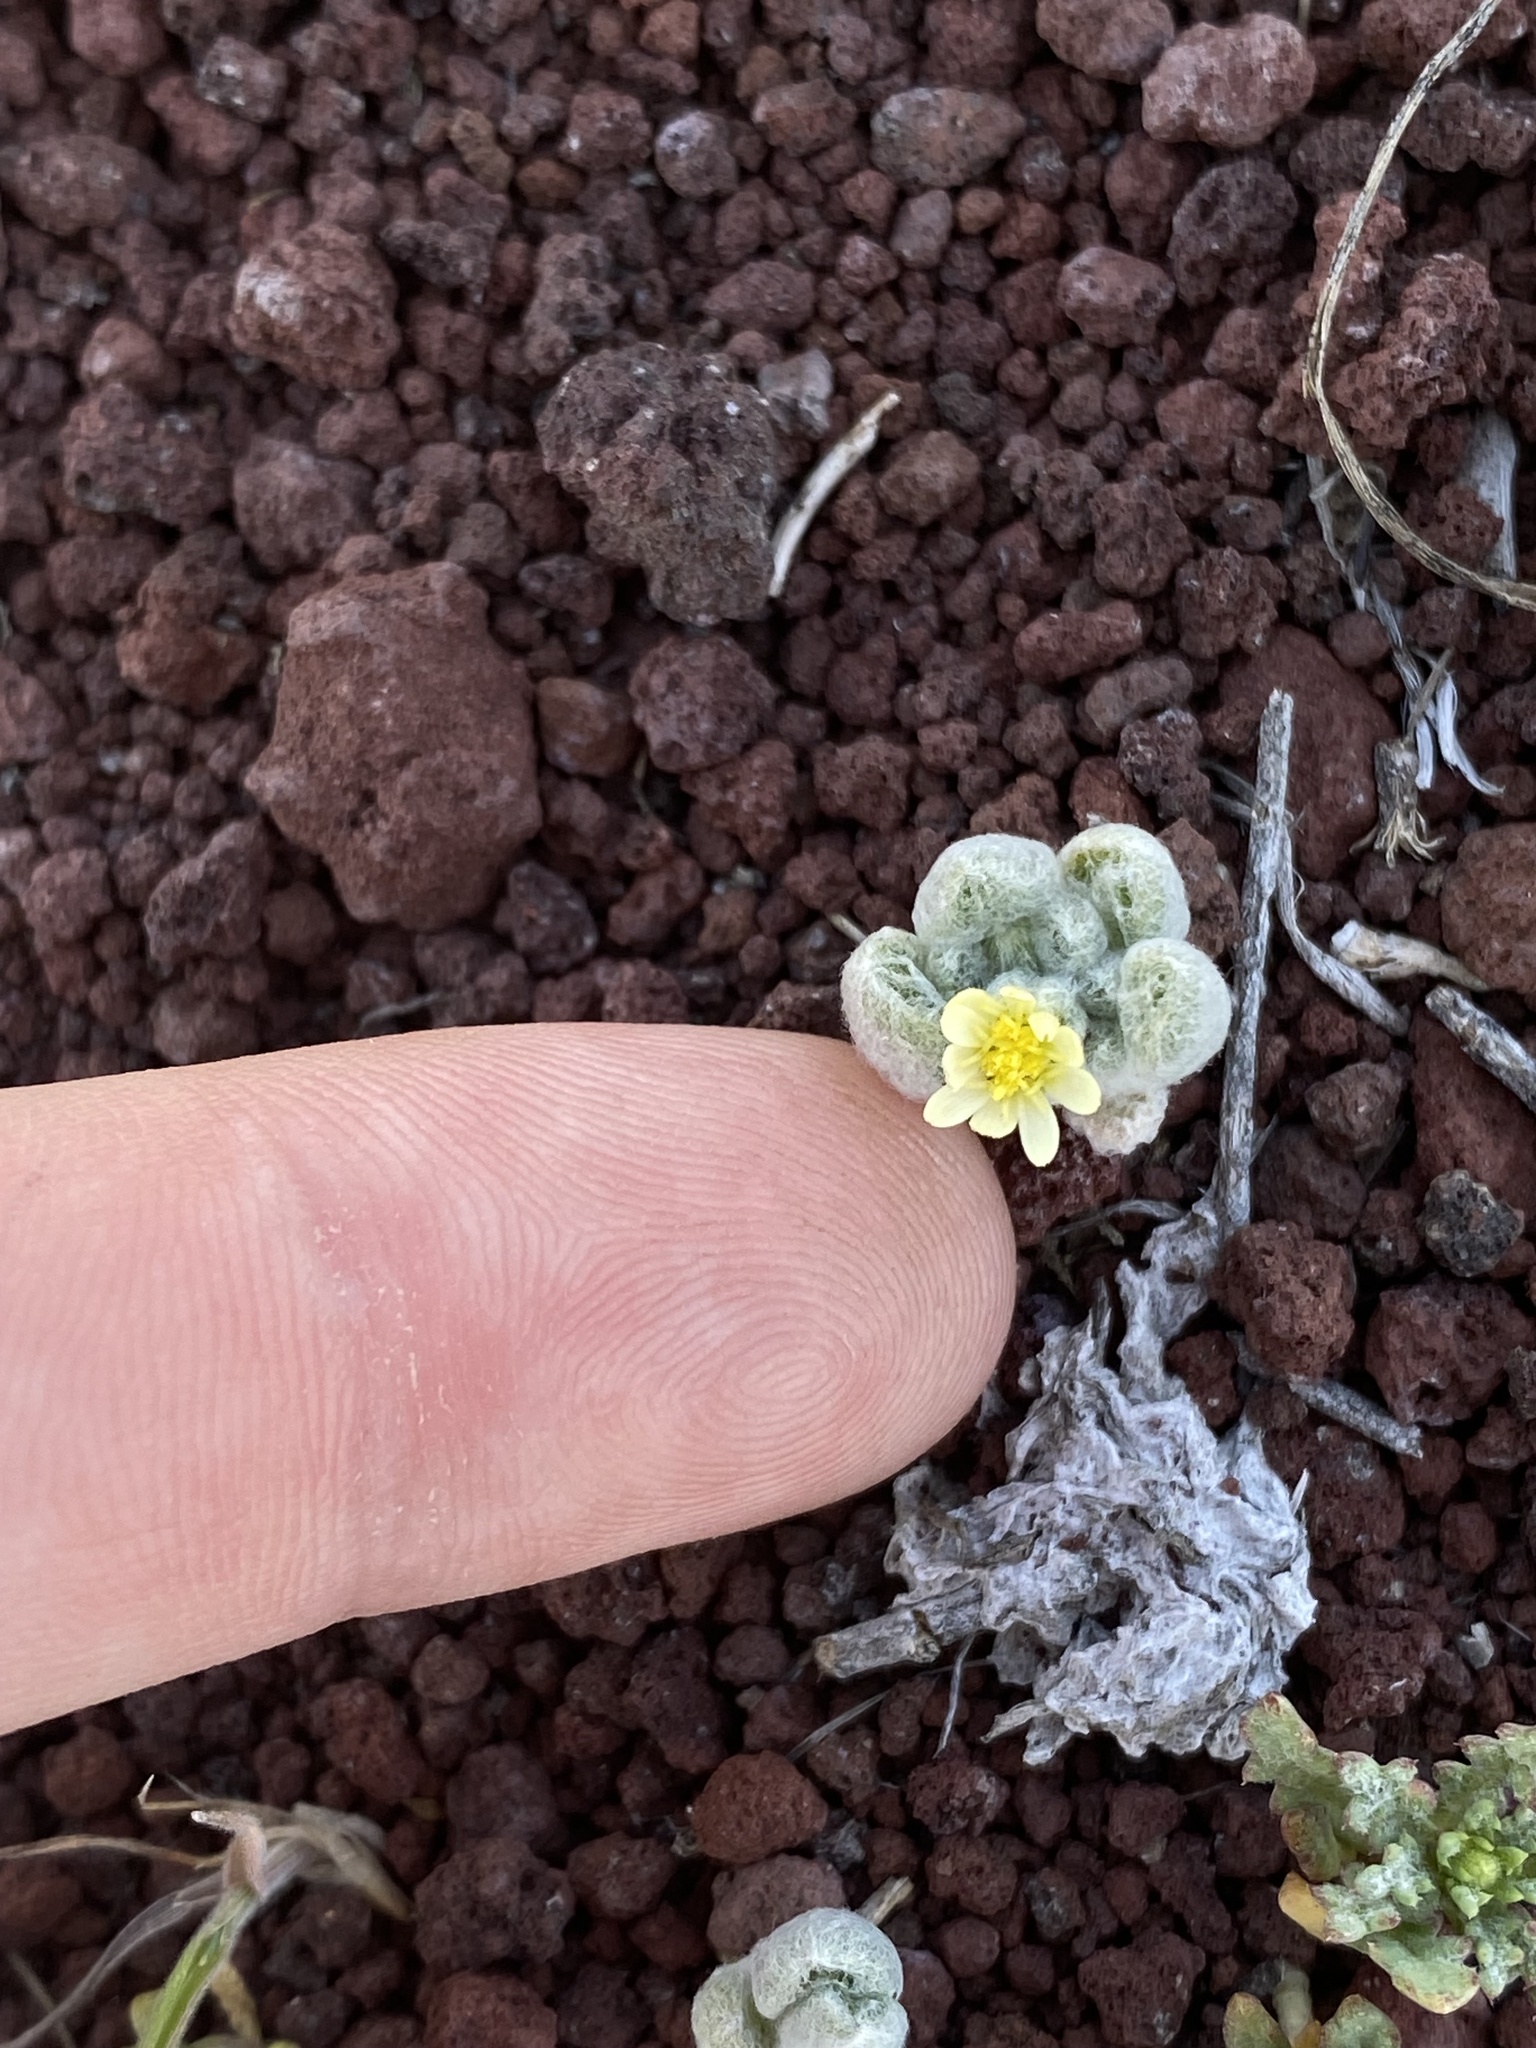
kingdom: Plantae
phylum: Tracheophyta
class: Magnoliopsida
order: Asterales
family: Asteraceae
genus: Eatonella
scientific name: Eatonella nivea
